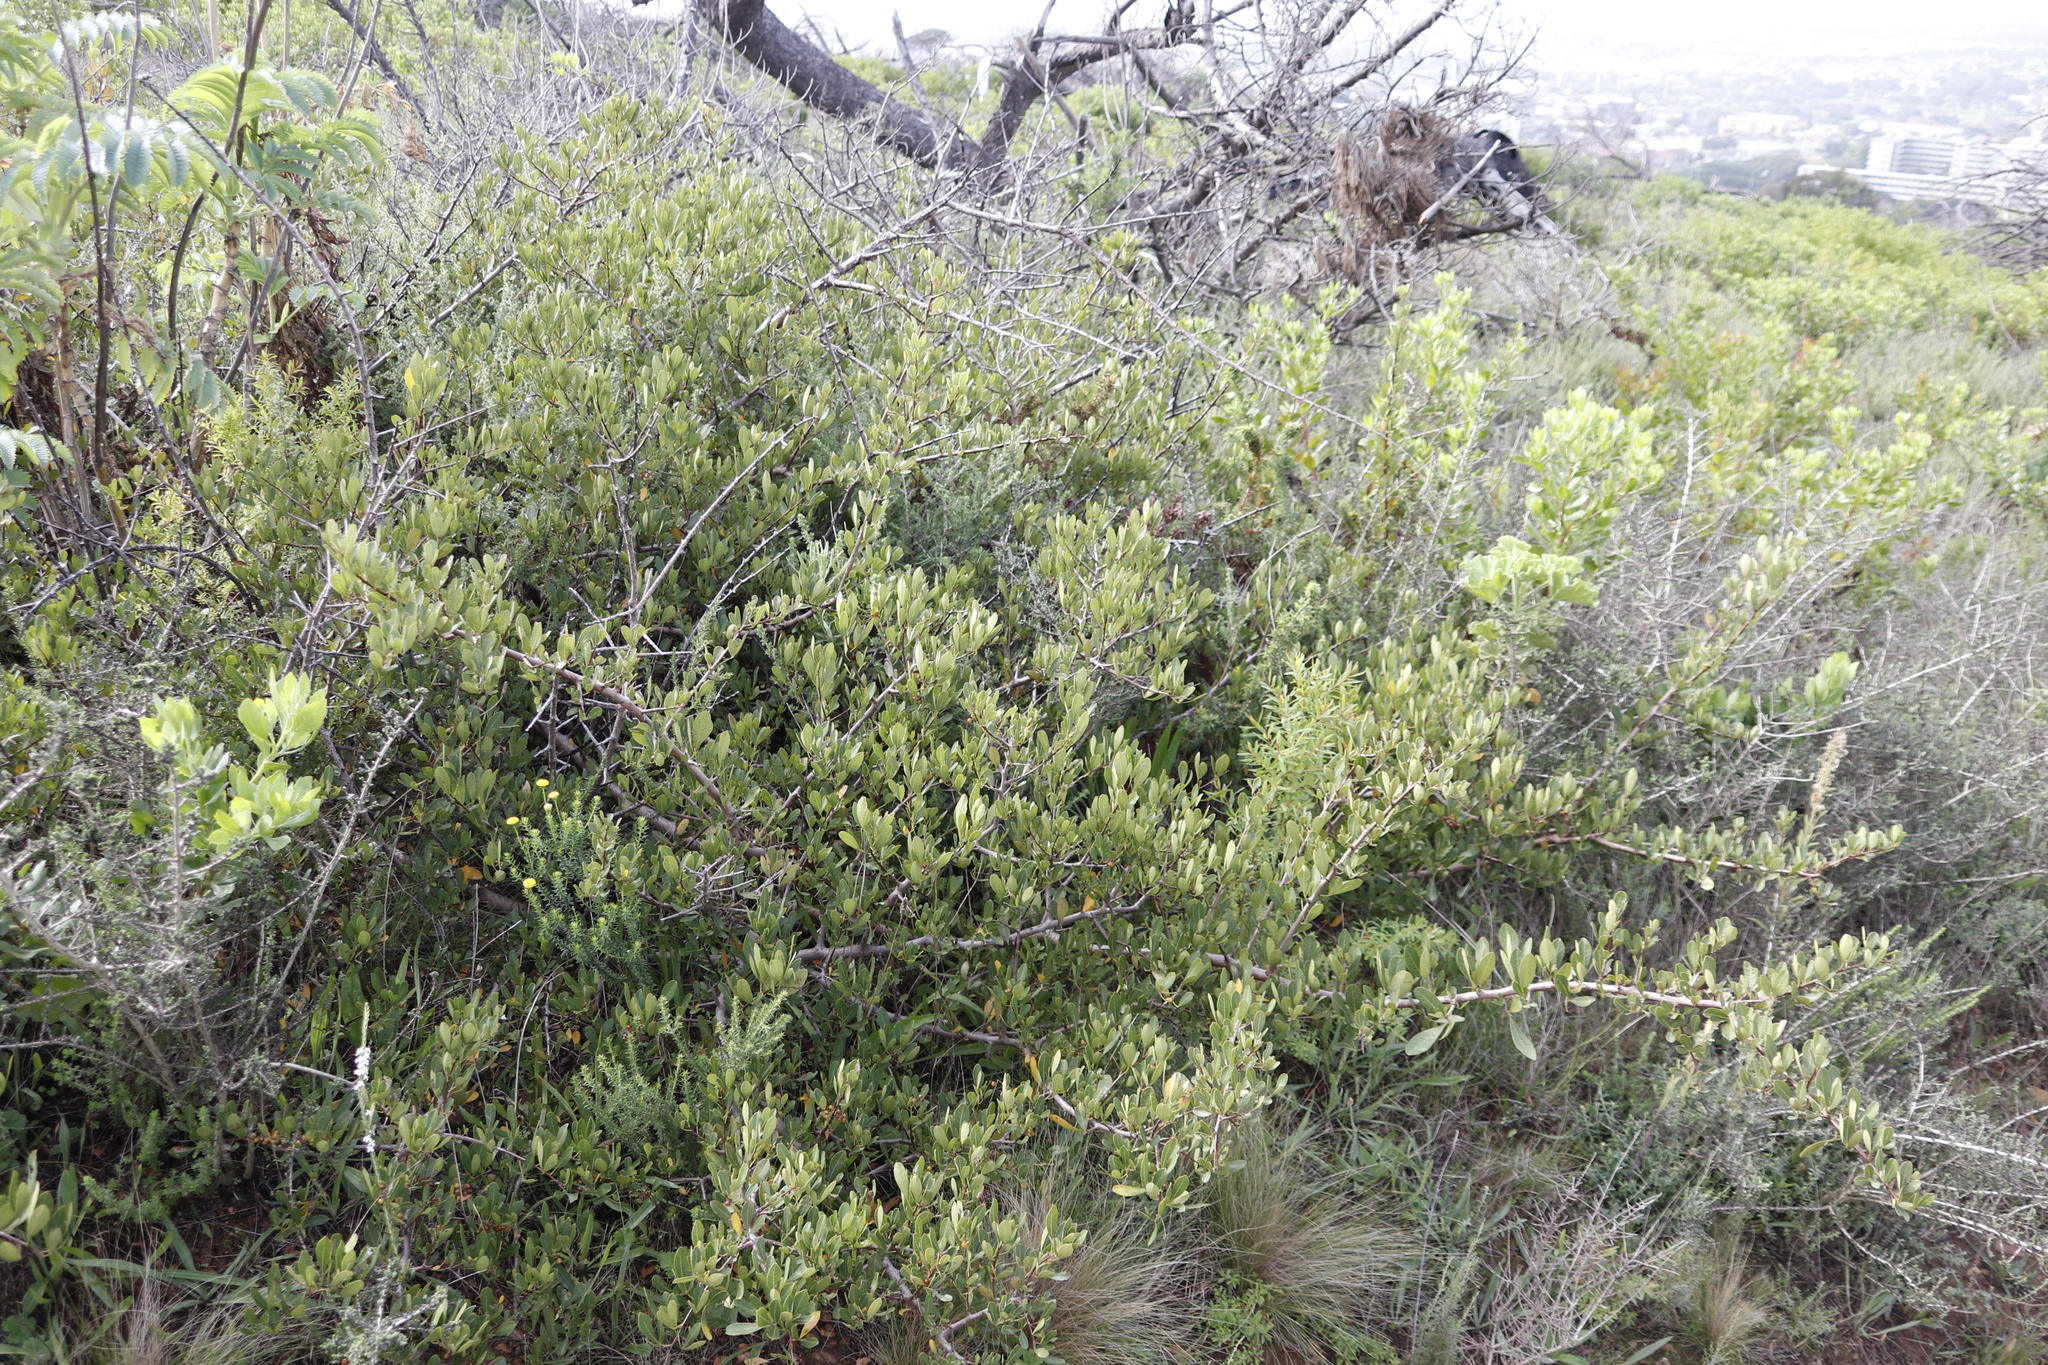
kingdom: Plantae
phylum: Tracheophyta
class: Magnoliopsida
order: Celastrales
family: Celastraceae
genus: Gymnosporia
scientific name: Gymnosporia buxifolia
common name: Common spike-thorn
